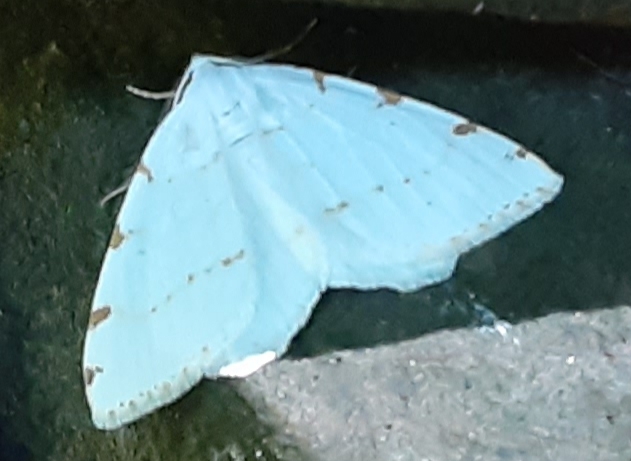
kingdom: Animalia
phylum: Arthropoda
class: Insecta
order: Lepidoptera
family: Geometridae
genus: Macaria
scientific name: Macaria pustularia
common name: Lesser maple spanworm moth
